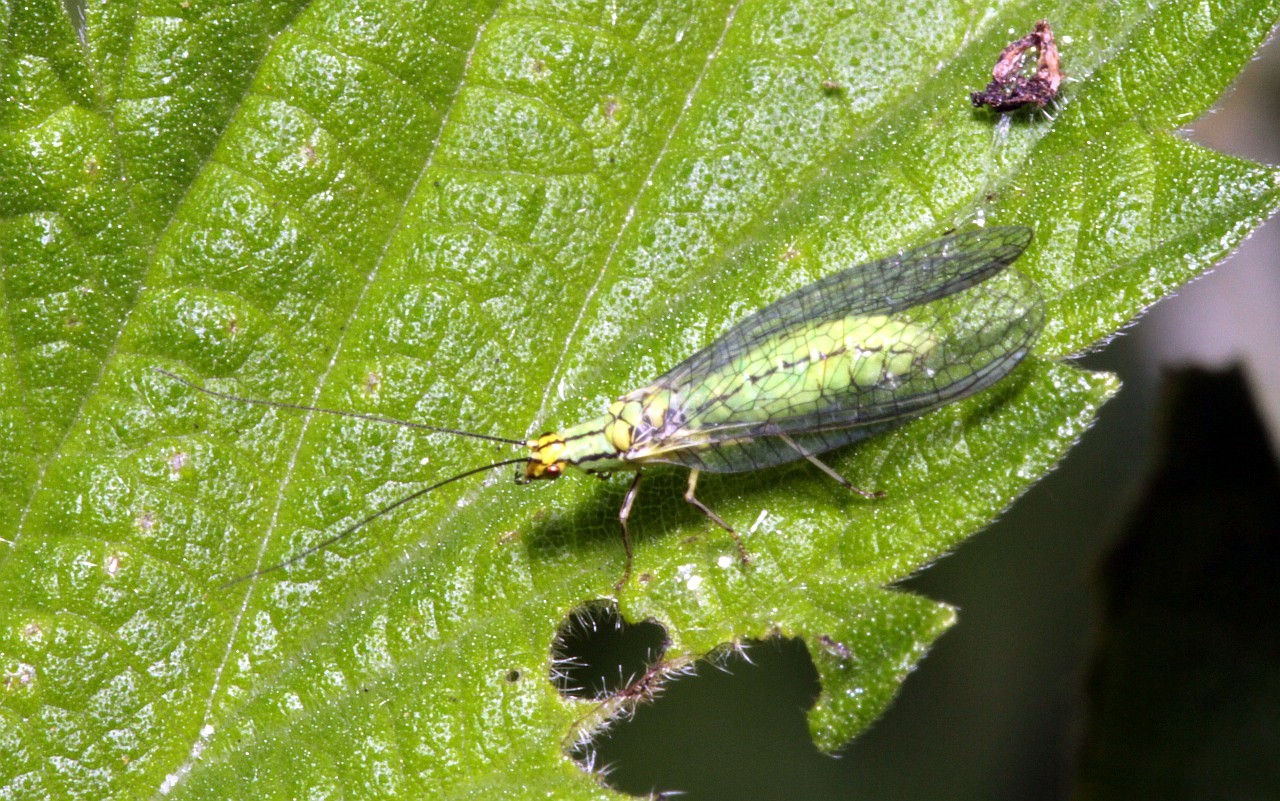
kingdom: Animalia
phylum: Arthropoda
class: Insecta
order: Neuroptera
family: Chrysopidae
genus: Hypochrysa
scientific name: Hypochrysa elegans
